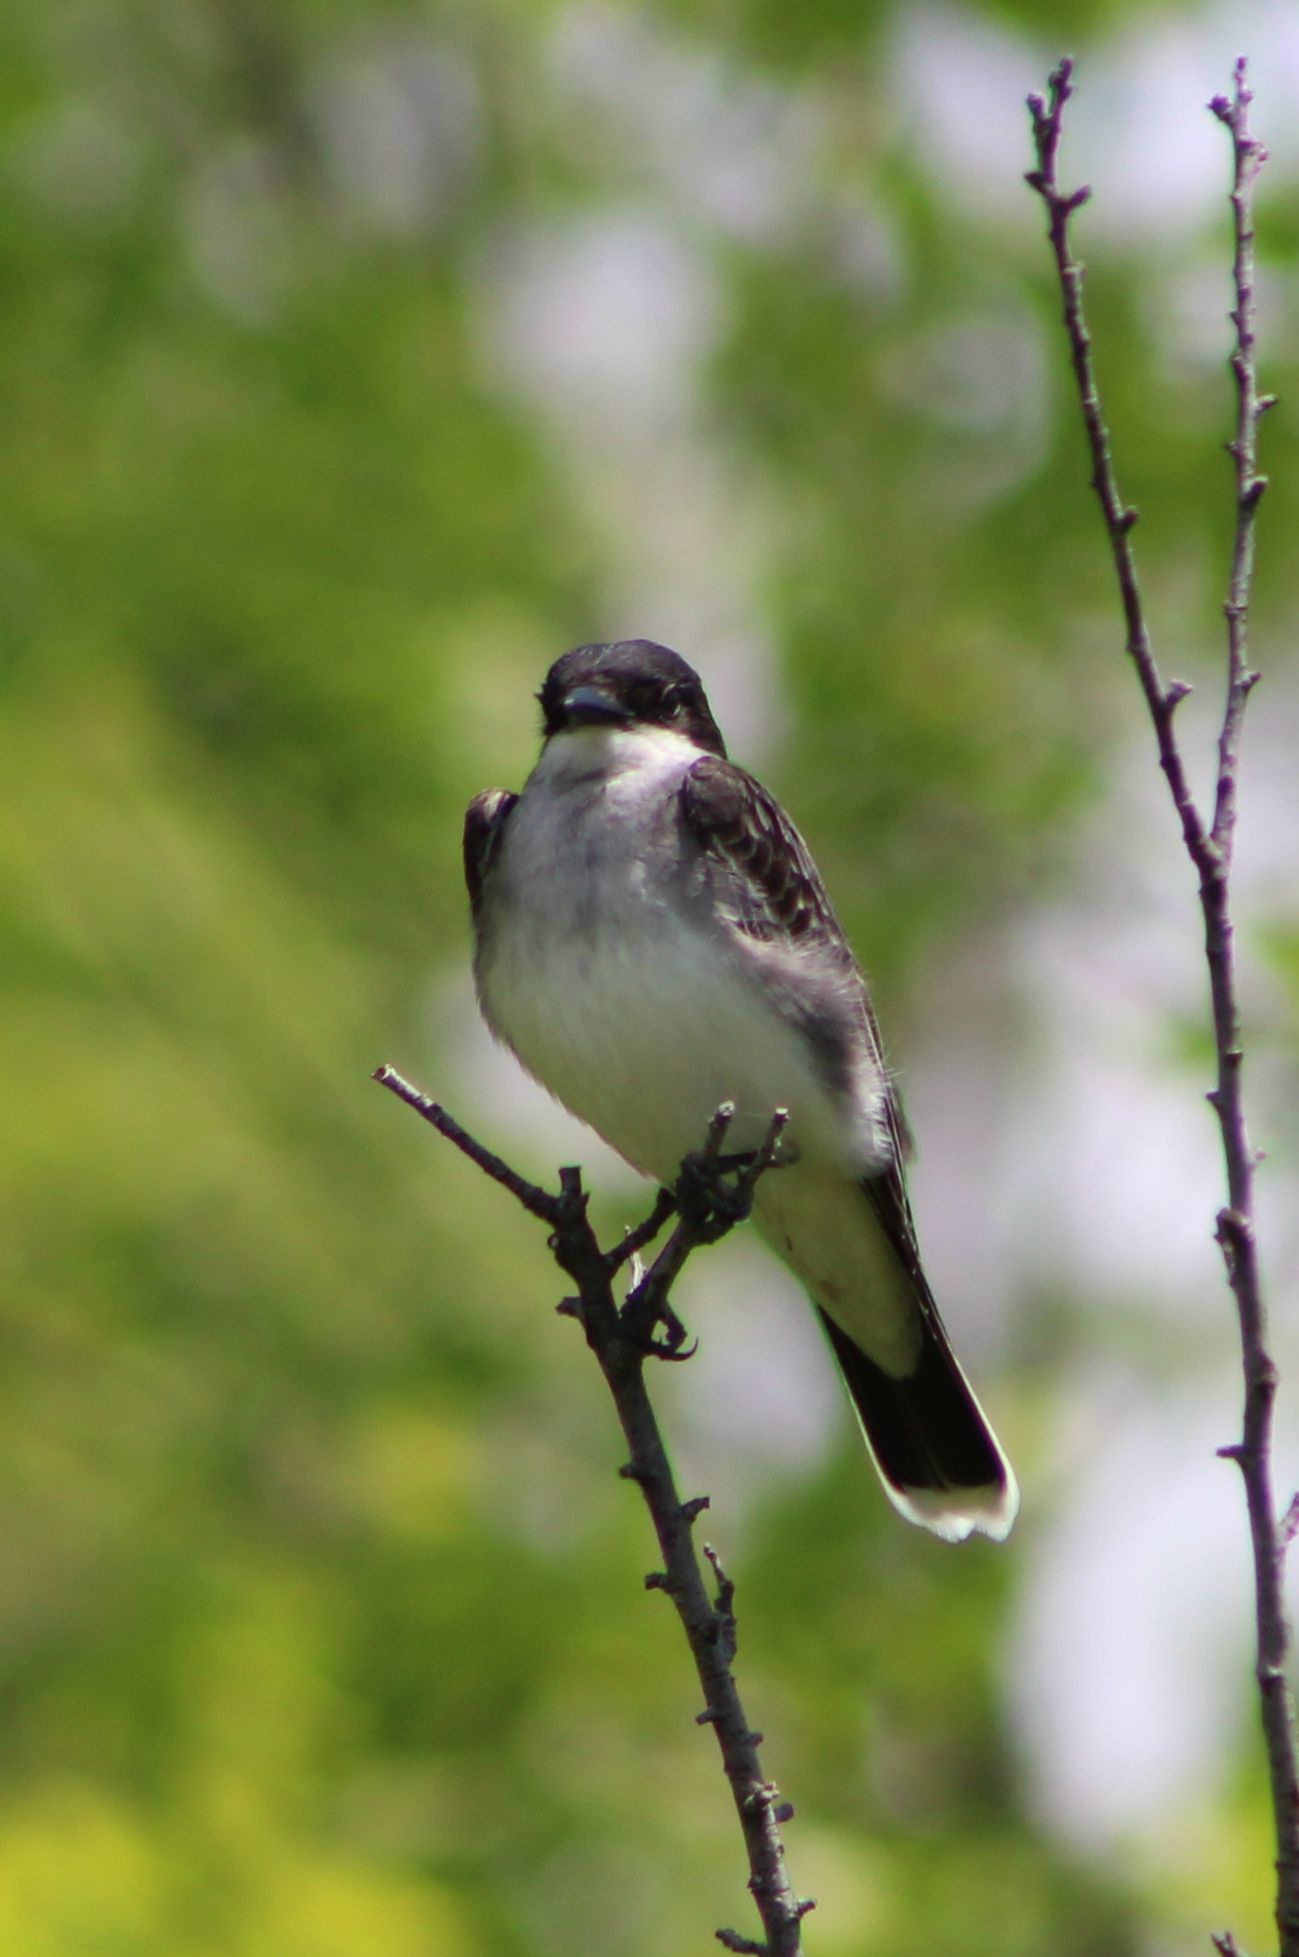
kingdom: Animalia
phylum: Chordata
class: Aves
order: Passeriformes
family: Tyrannidae
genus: Tyrannus
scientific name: Tyrannus tyrannus
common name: Eastern kingbird
